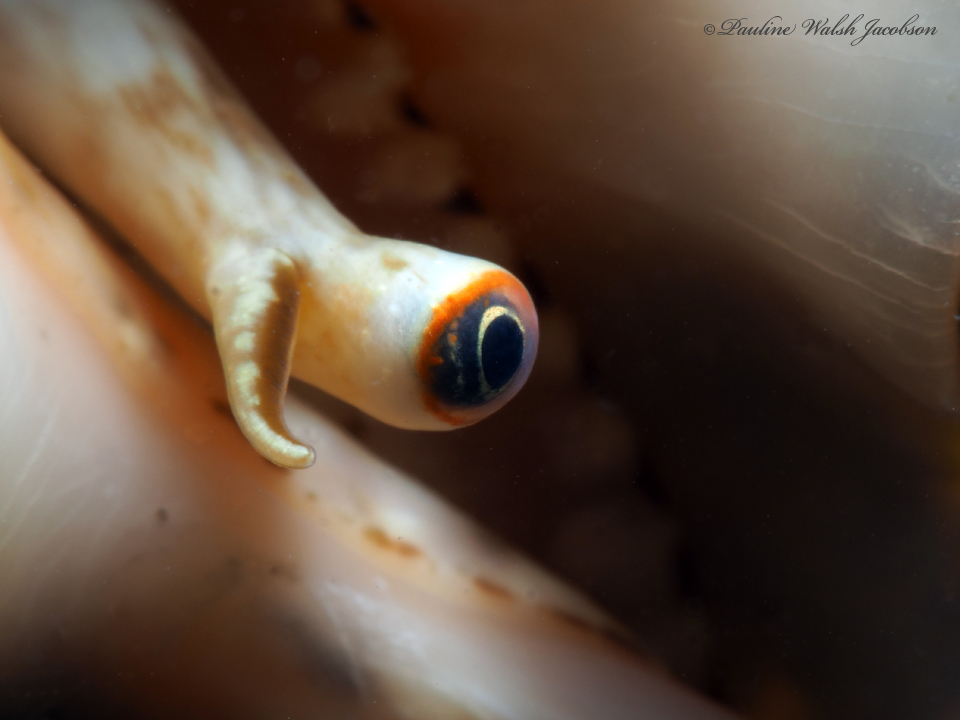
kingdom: Animalia
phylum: Mollusca
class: Gastropoda
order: Littorinimorpha
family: Strombidae
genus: Lobatus
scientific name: Lobatus raninus
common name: Hawk-wing conch
